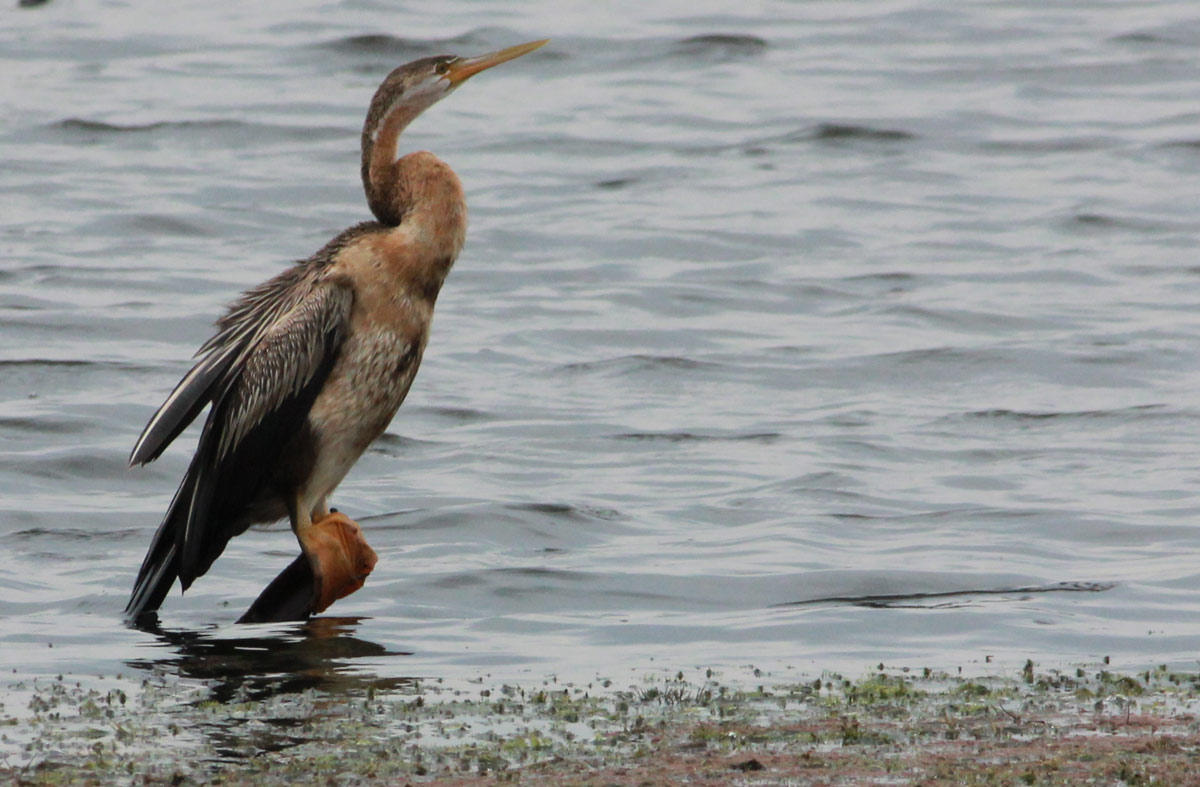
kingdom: Animalia
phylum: Chordata
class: Aves
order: Suliformes
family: Anhingidae
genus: Anhinga
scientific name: Anhinga rufa
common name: African darter
